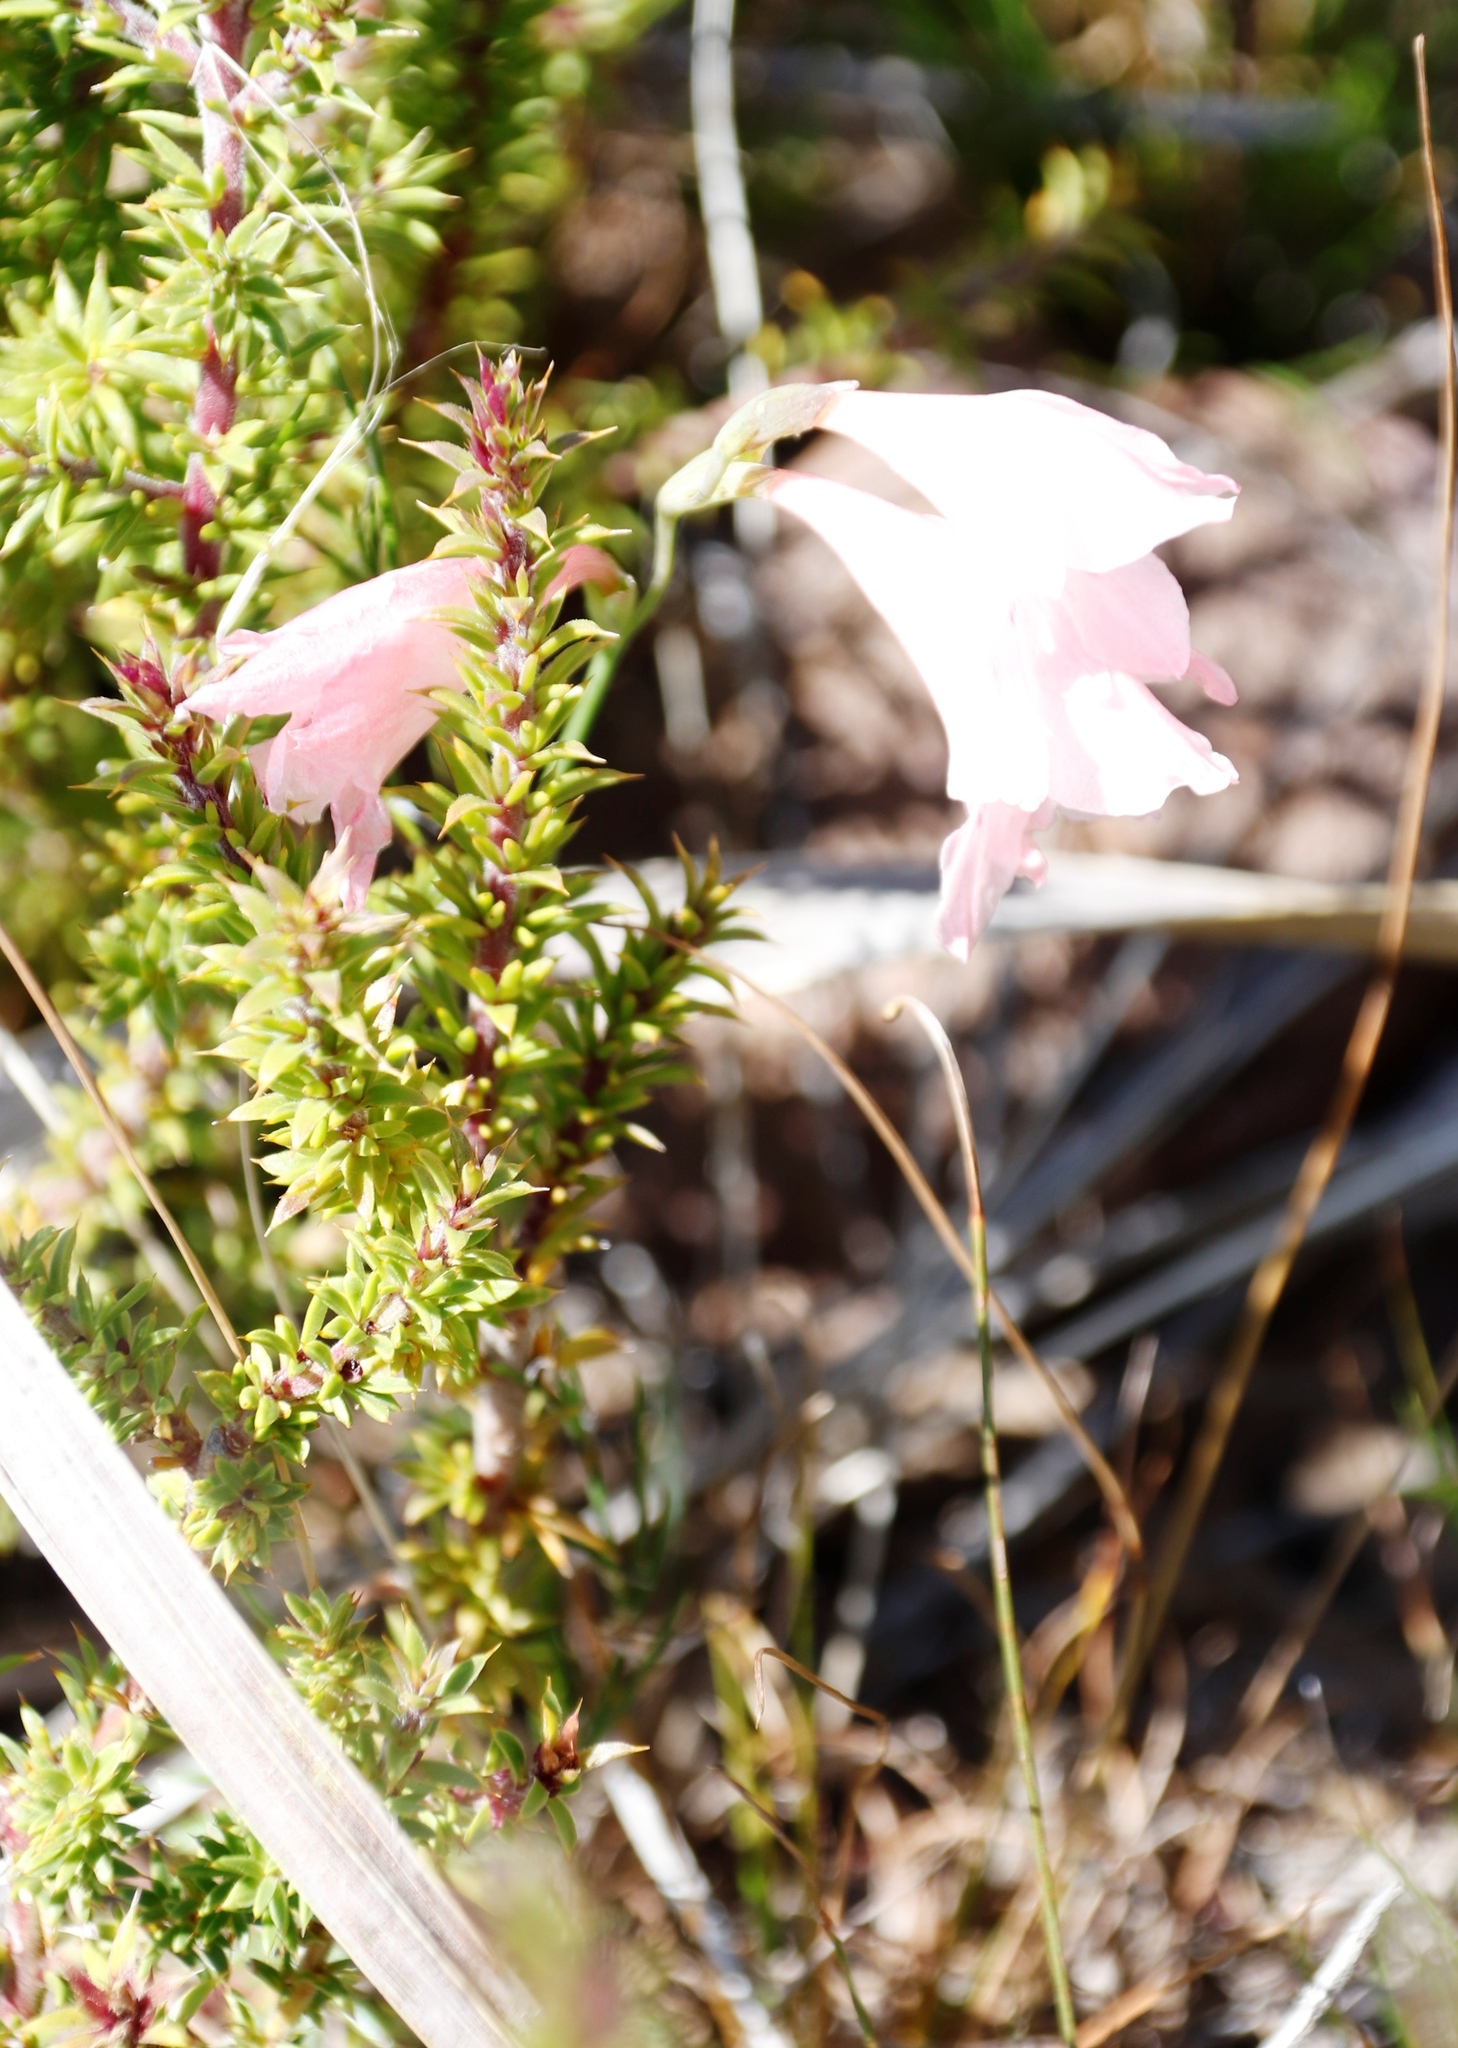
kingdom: Plantae
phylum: Tracheophyta
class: Liliopsida
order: Asparagales
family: Iridaceae
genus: Gladiolus
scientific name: Gladiolus brevifolius
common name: March pypie
